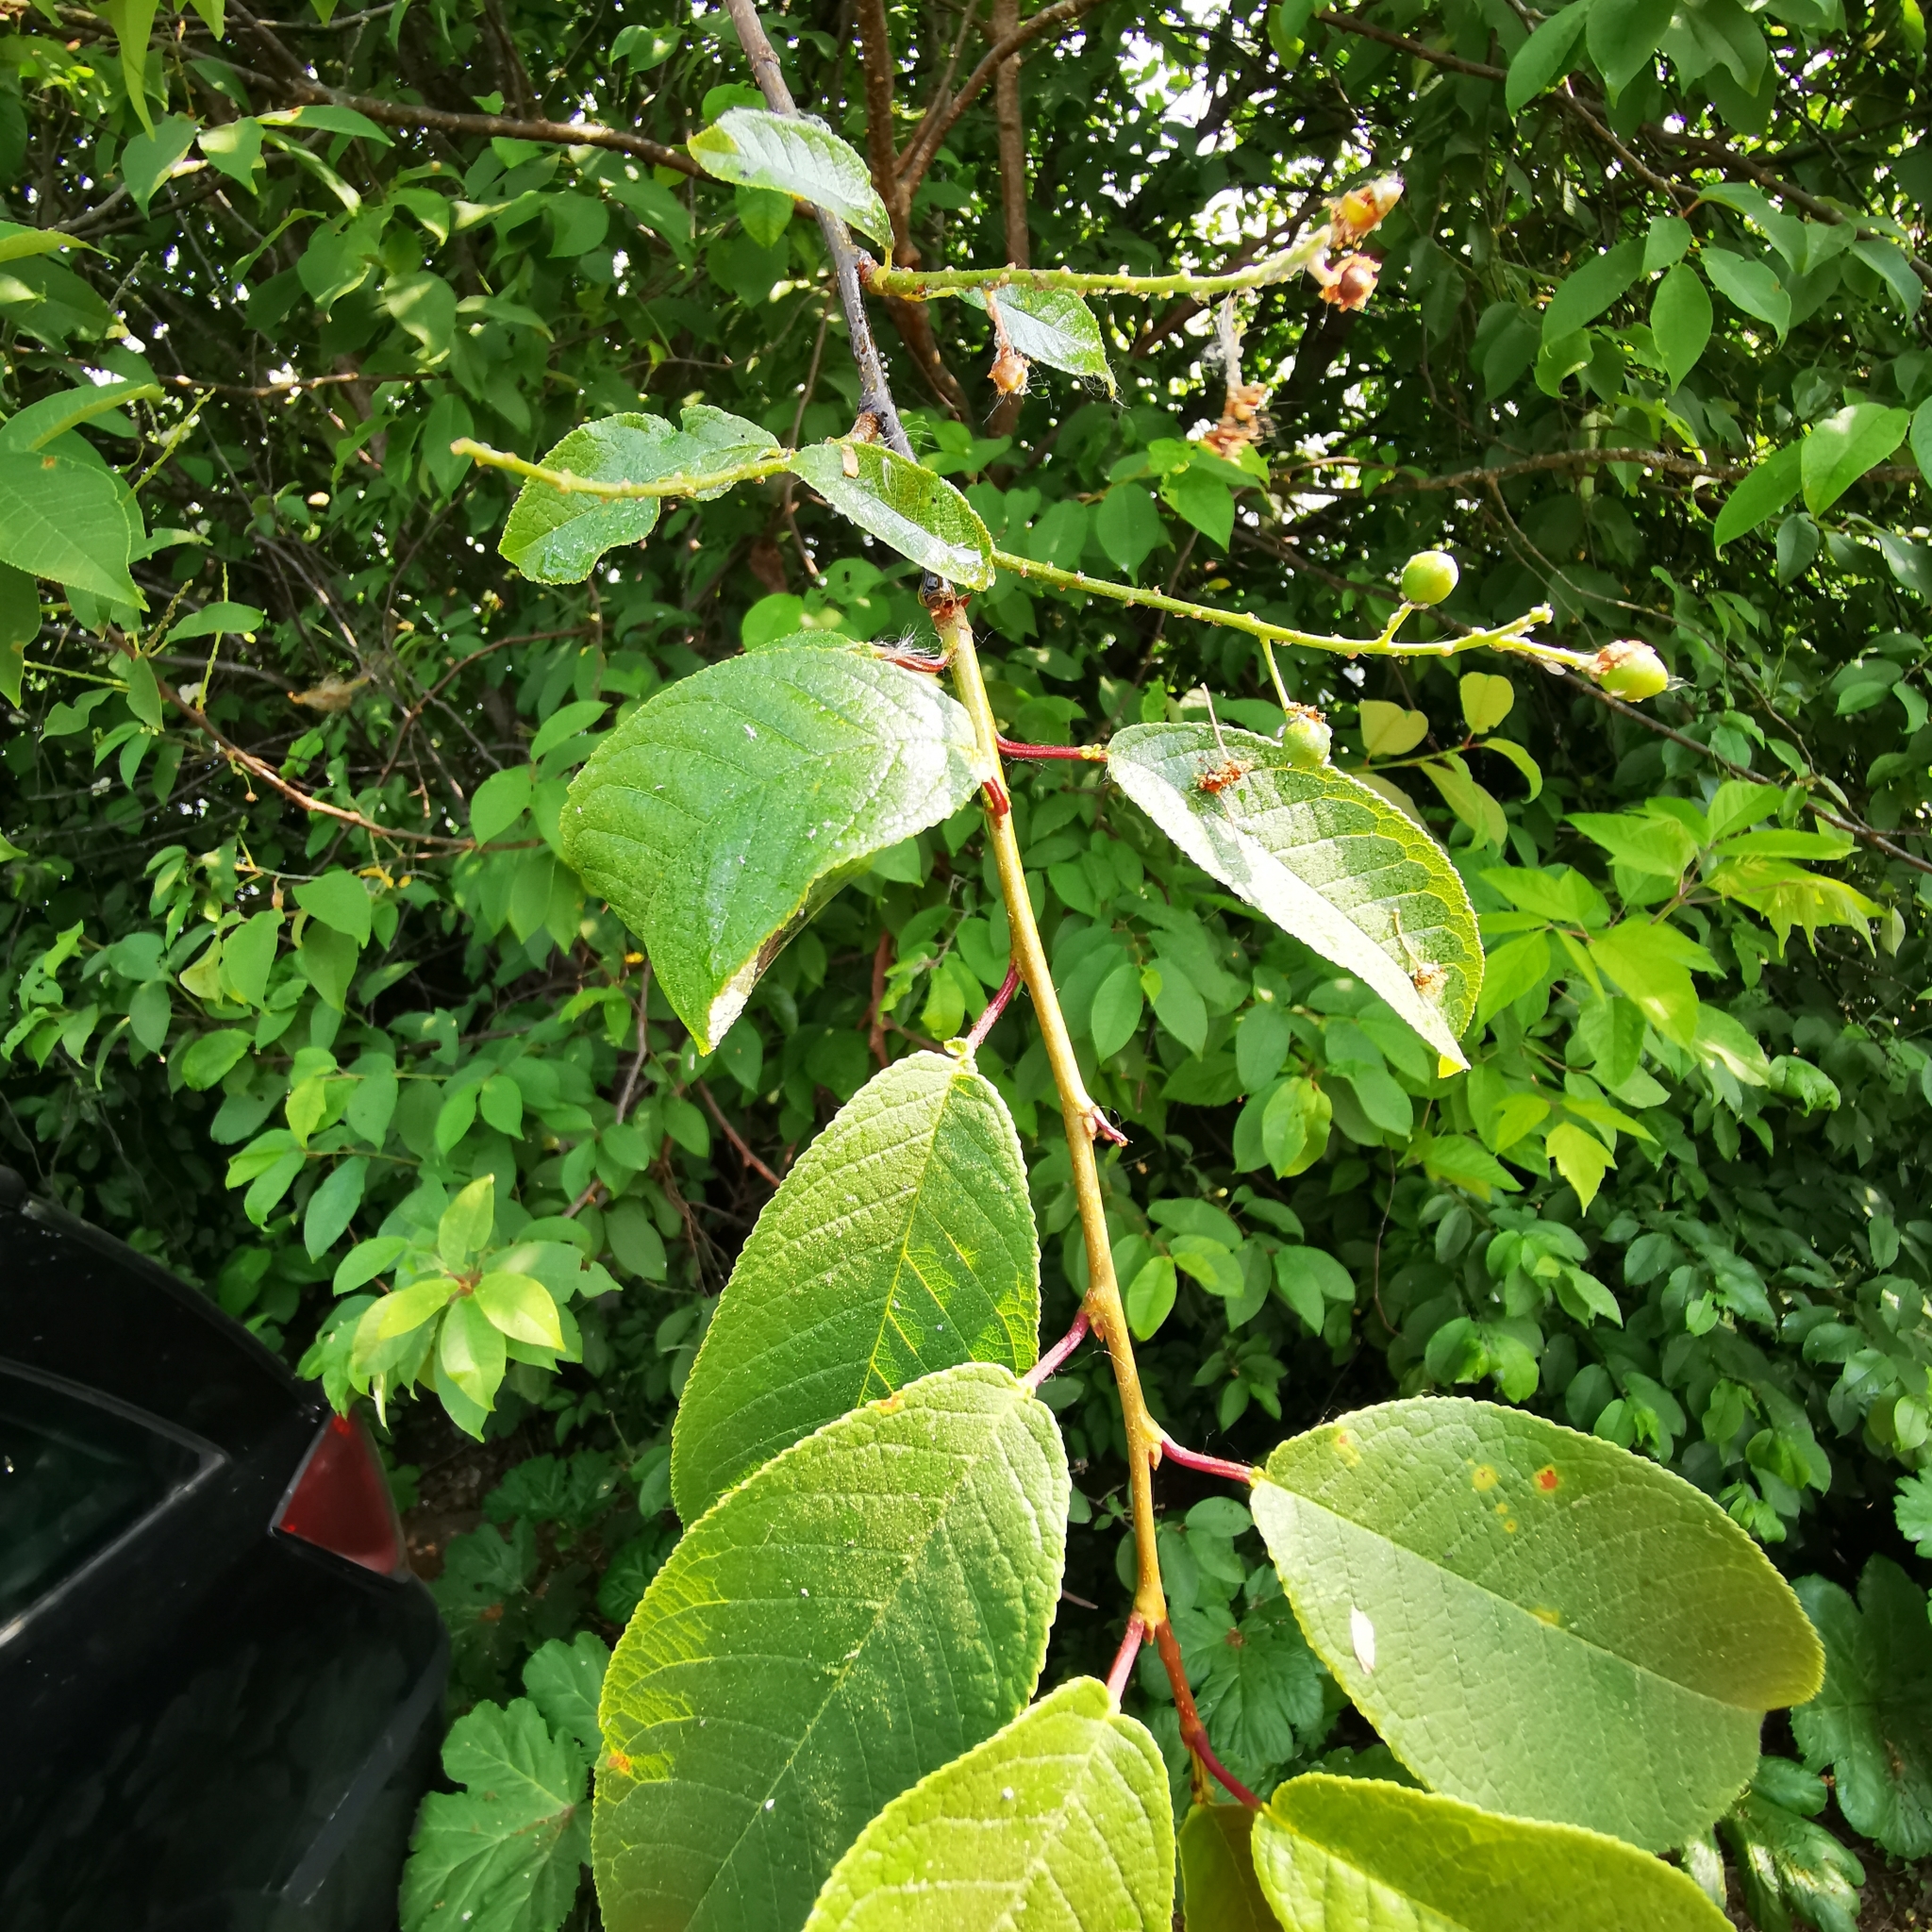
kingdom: Plantae
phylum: Tracheophyta
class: Magnoliopsida
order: Rosales
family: Rosaceae
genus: Prunus
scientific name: Prunus padus
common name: Bird cherry
